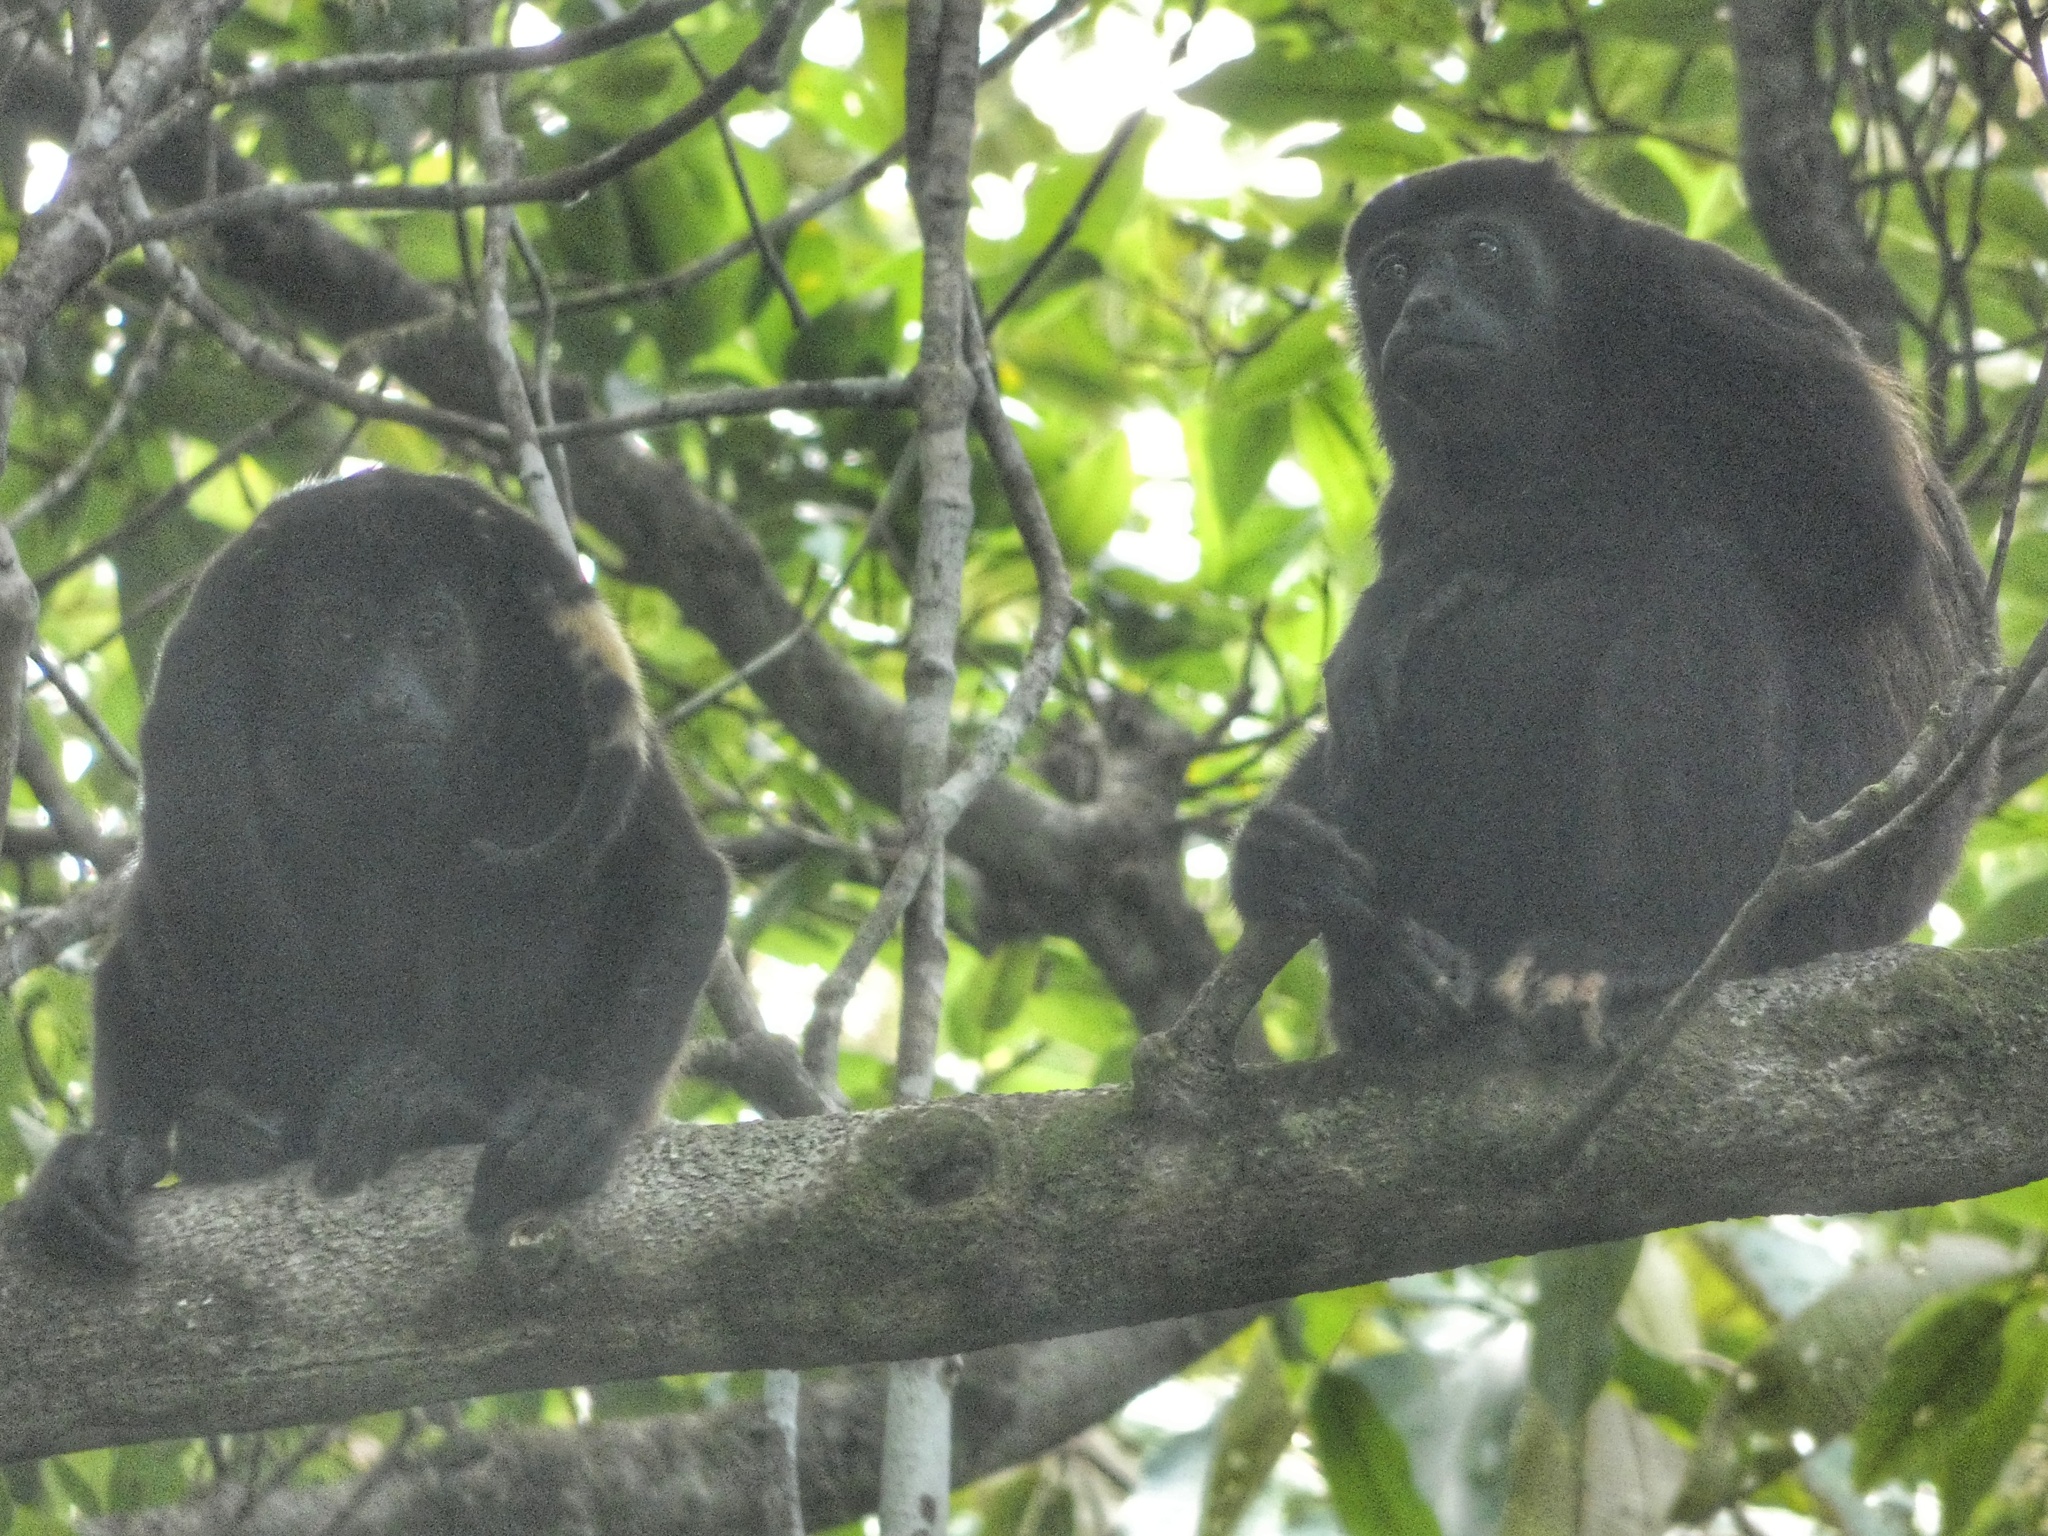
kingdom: Animalia
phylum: Chordata
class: Mammalia
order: Primates
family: Atelidae
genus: Alouatta
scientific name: Alouatta palliata
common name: Mantled howler
